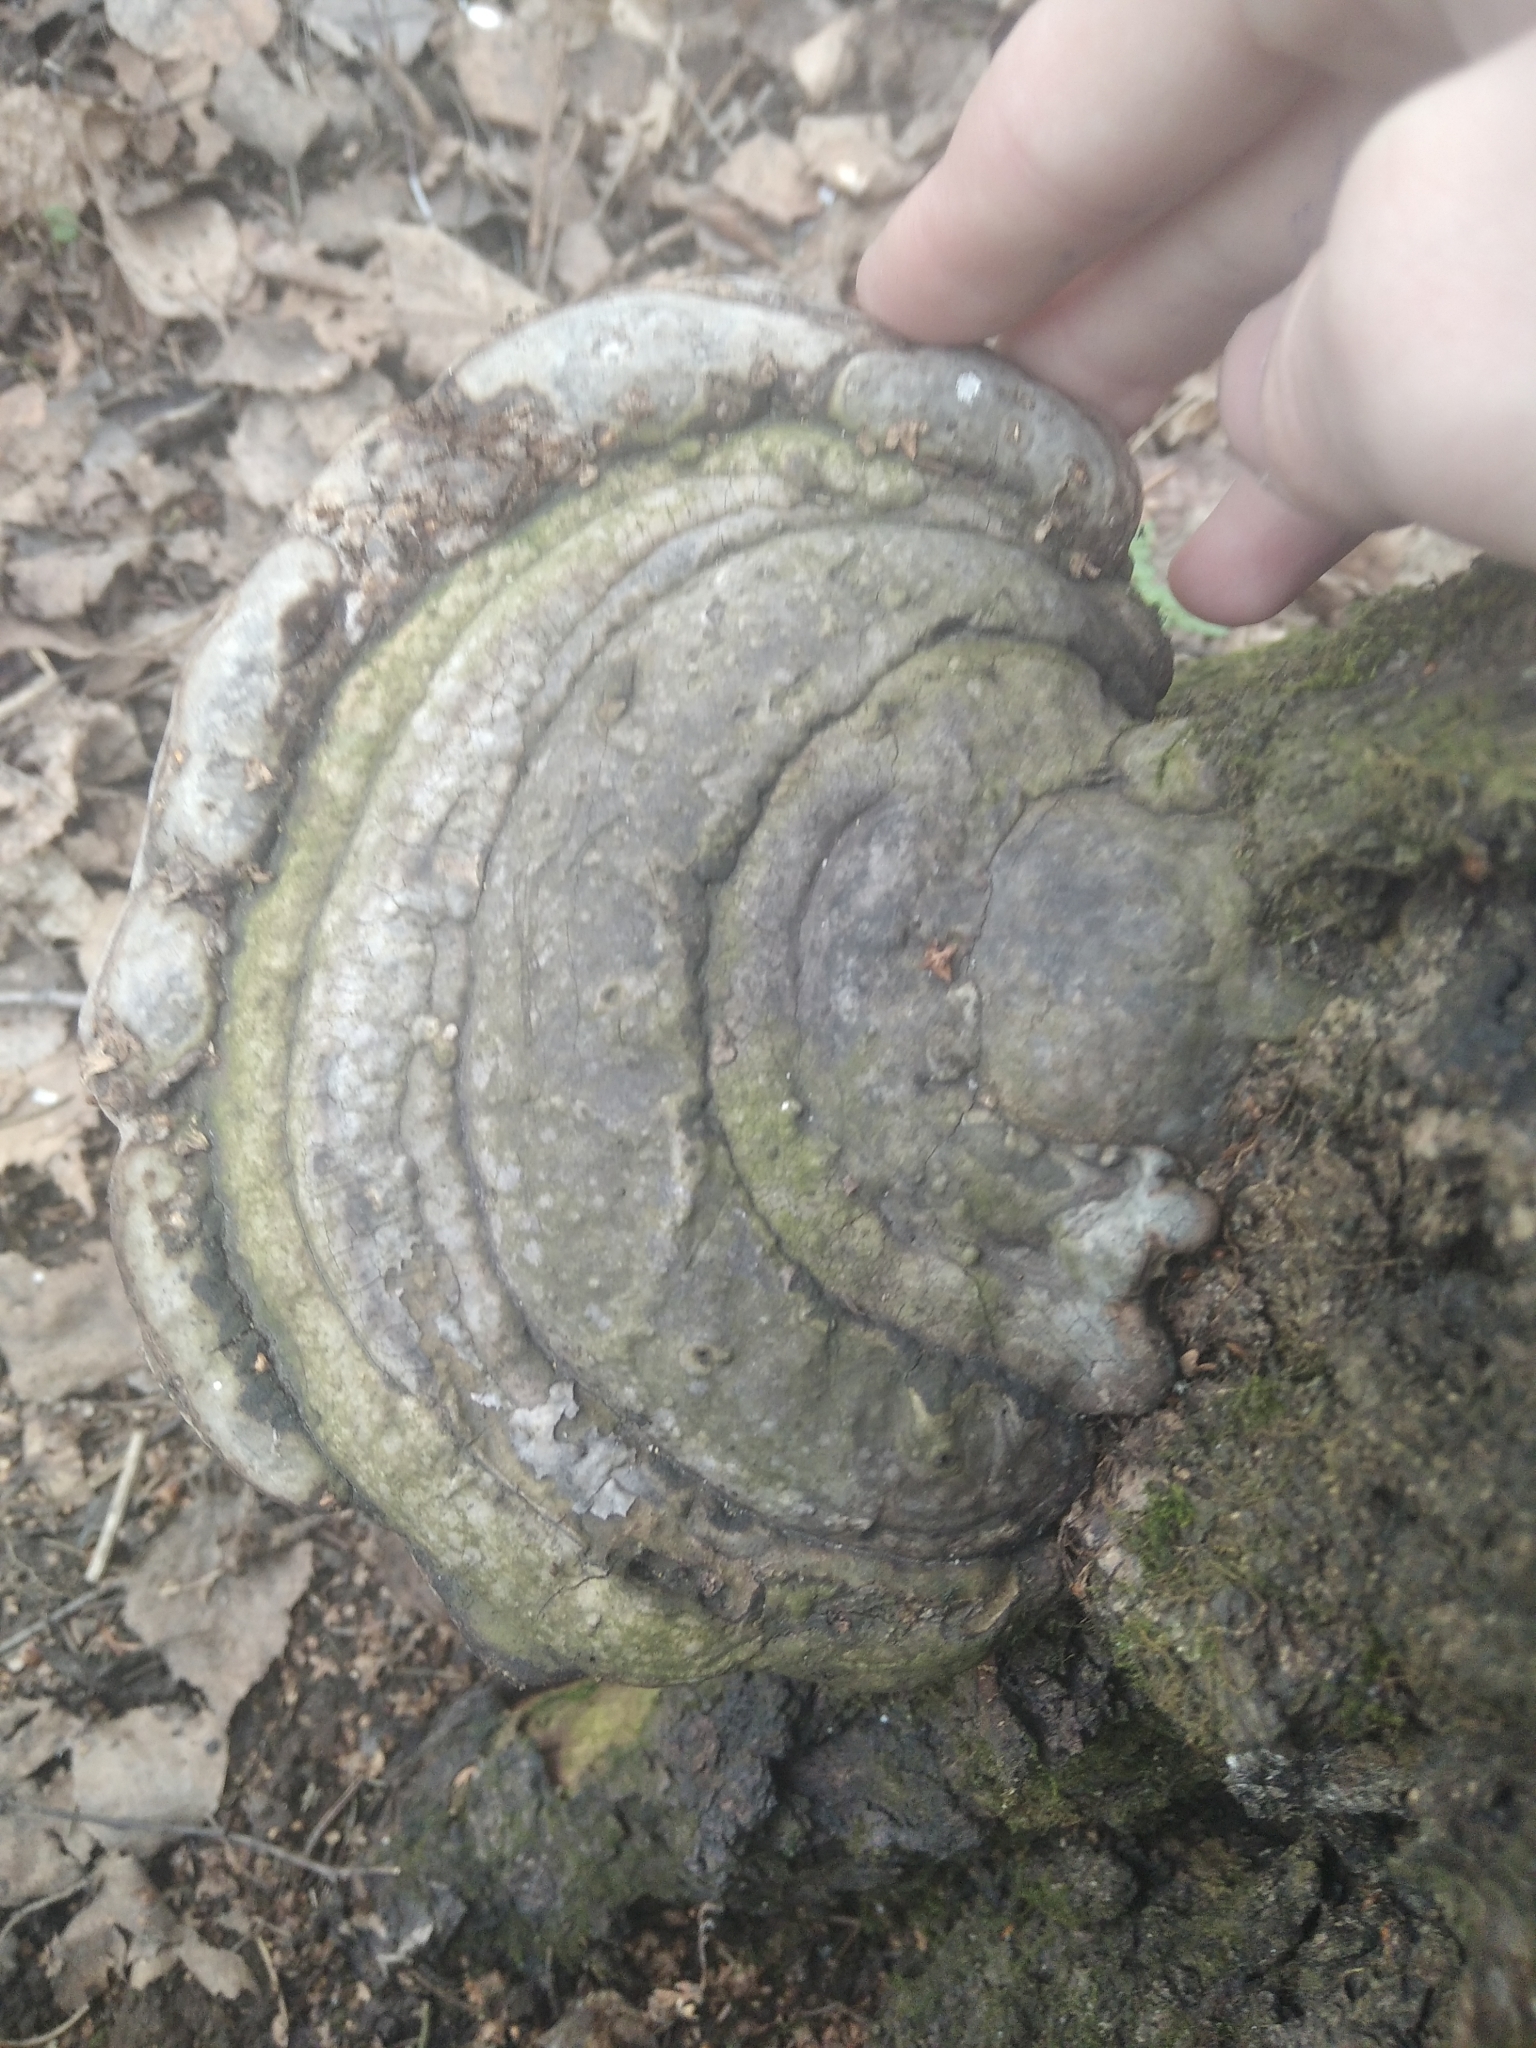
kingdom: Fungi
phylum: Basidiomycota
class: Agaricomycetes
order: Polyporales
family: Polyporaceae
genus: Fomes
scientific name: Fomes fomentarius
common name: Hoof fungus
